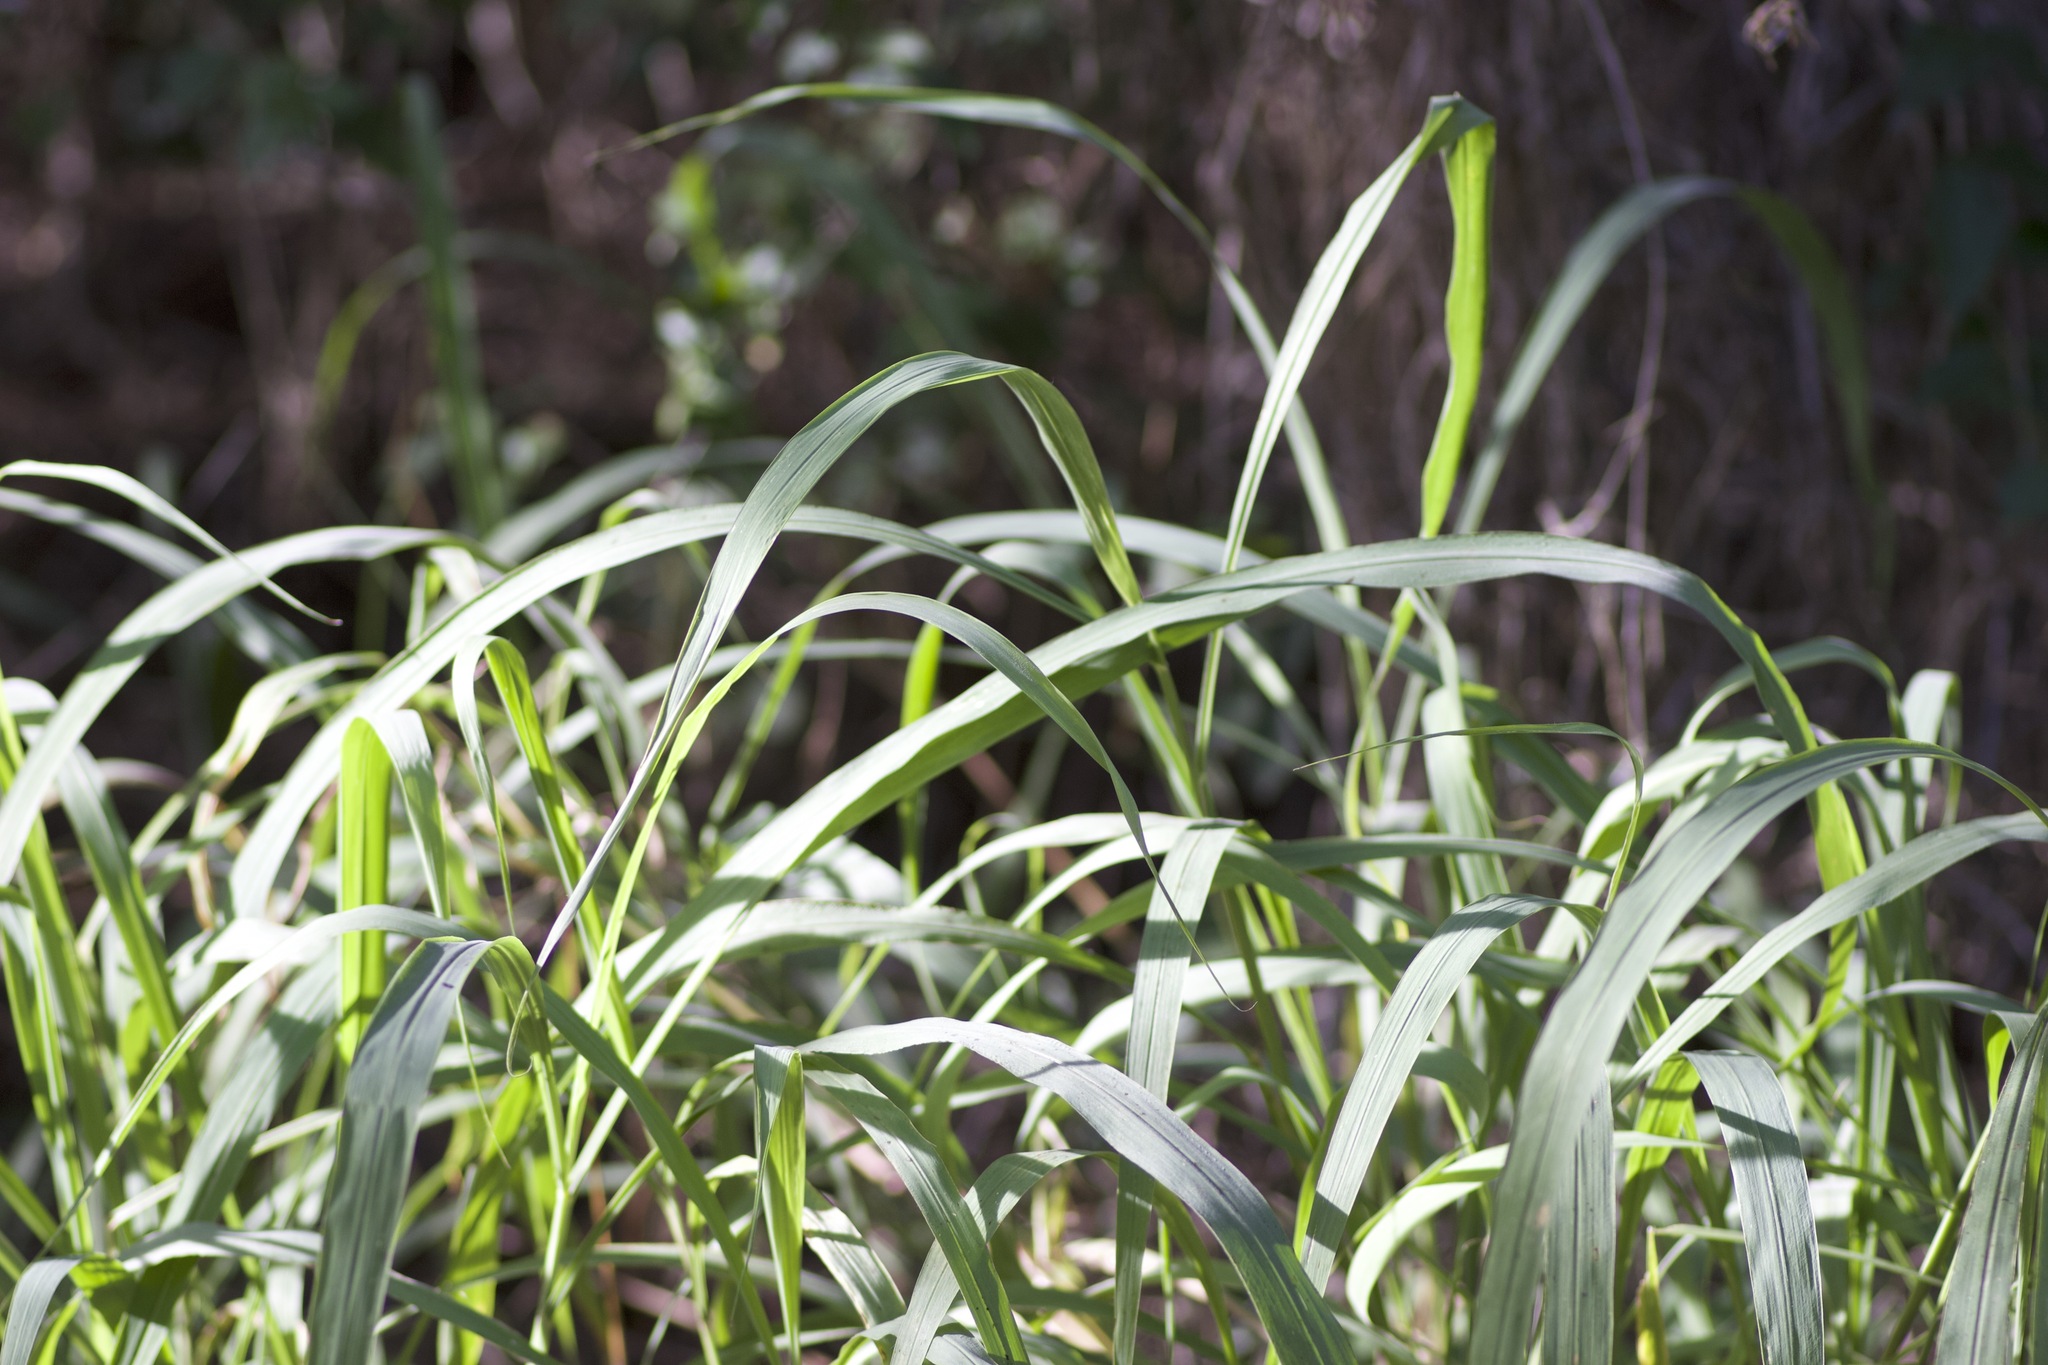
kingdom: Plantae
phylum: Tracheophyta
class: Liliopsida
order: Poales
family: Poaceae
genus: Megathyrsus
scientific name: Megathyrsus maximus
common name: Guineagrass
